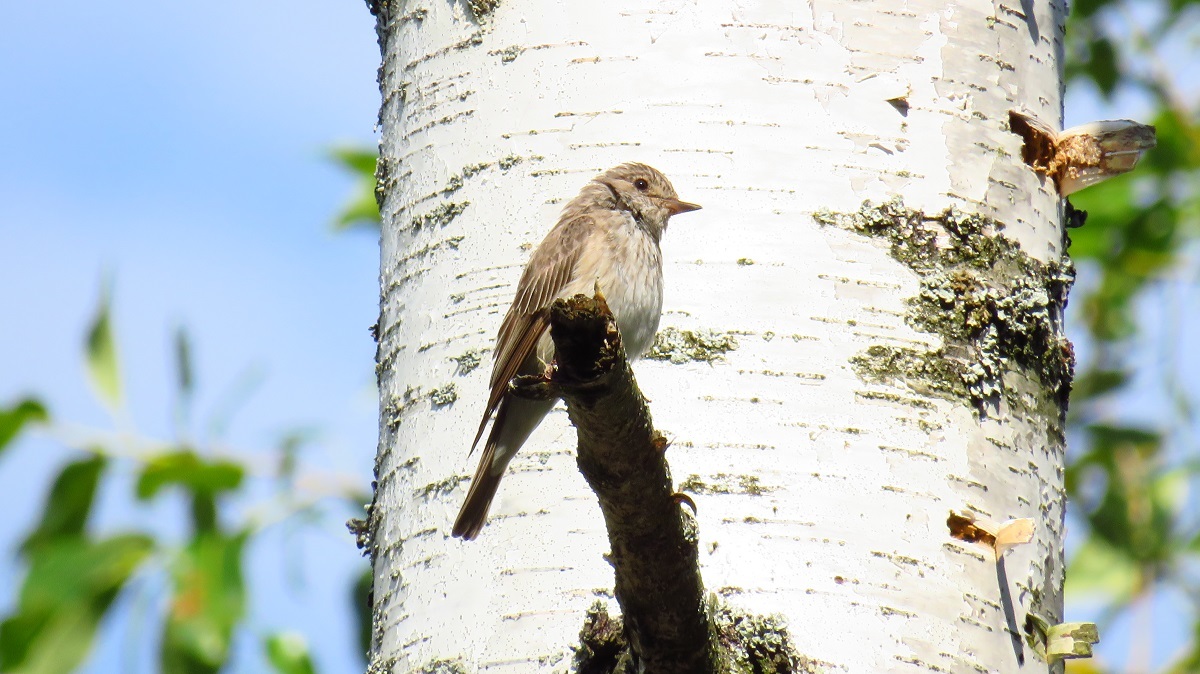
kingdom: Animalia
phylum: Chordata
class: Aves
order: Passeriformes
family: Muscicapidae
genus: Muscicapa
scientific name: Muscicapa striata
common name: Spotted flycatcher
